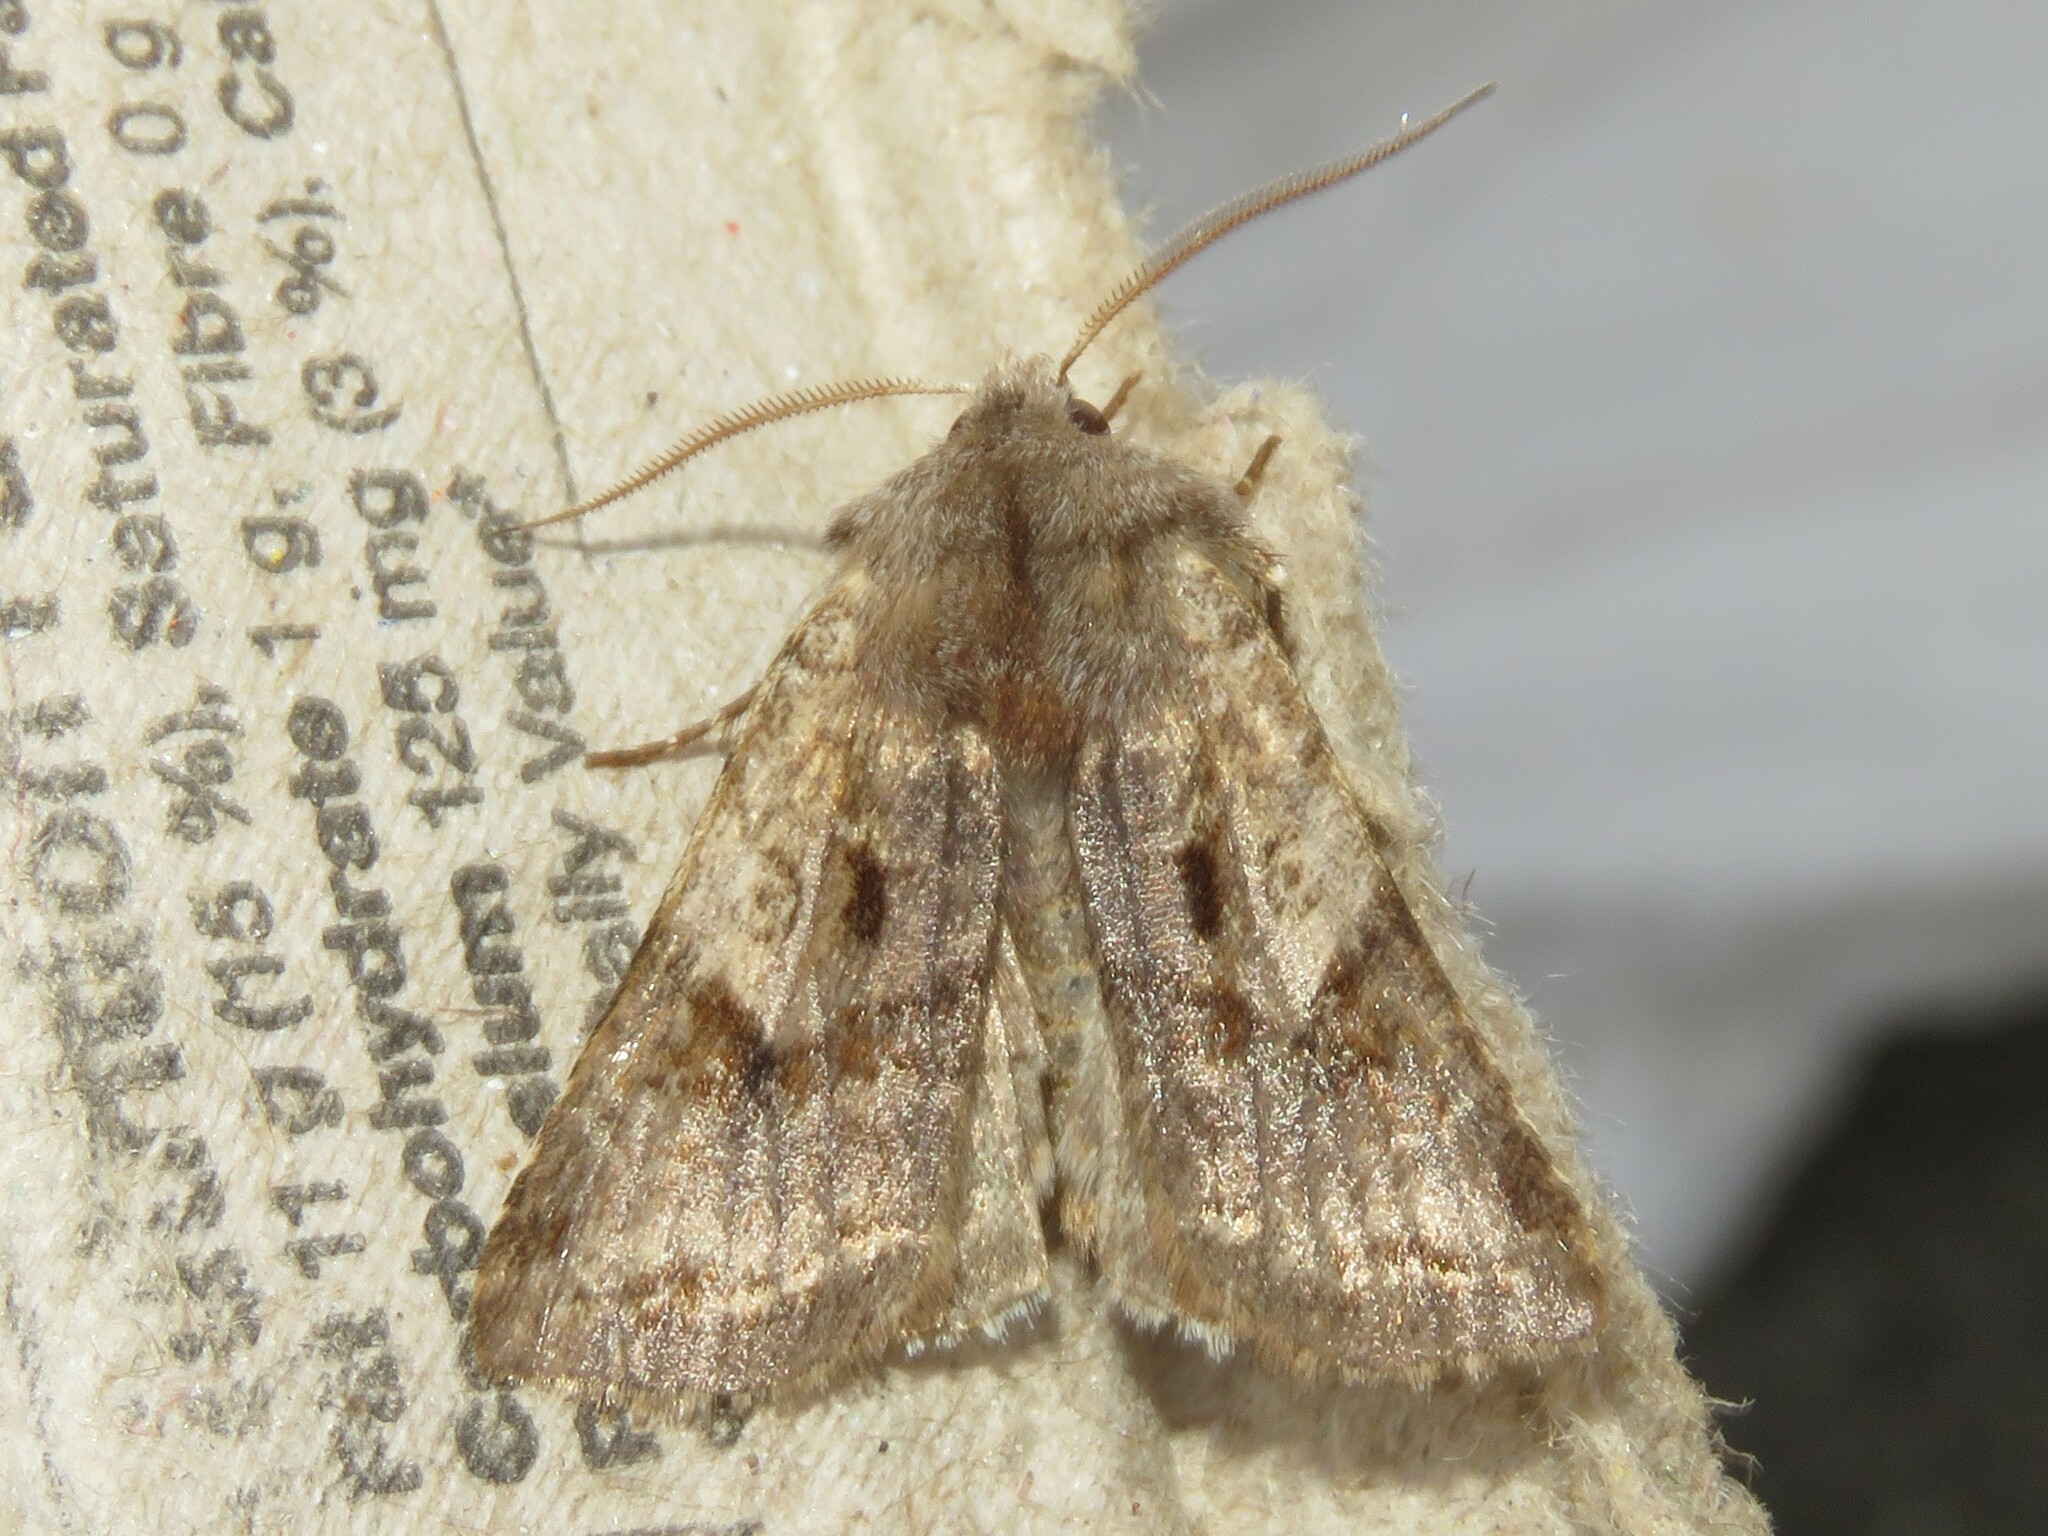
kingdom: Animalia
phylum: Arthropoda
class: Insecta
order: Lepidoptera
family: Noctuidae
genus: Cerastis
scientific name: Cerastis salicarum
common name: Willow dart
